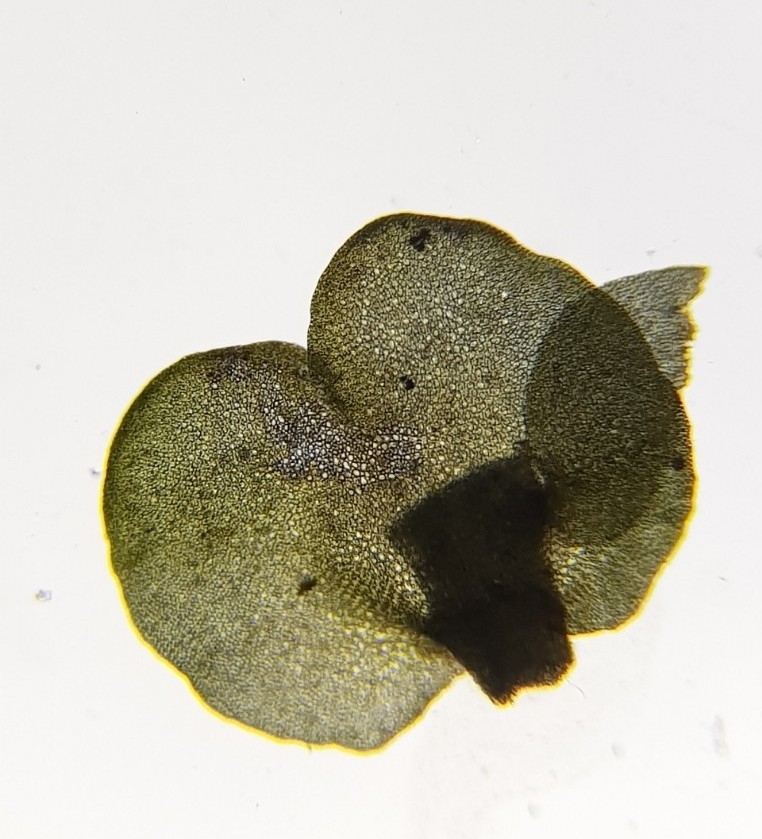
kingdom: Plantae
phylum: Marchantiophyta
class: Jungermanniopsida
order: Jungermanniales
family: Anastrophyllaceae
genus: Gymnocolea
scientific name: Gymnocolea inflata
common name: Inflated notchwort
